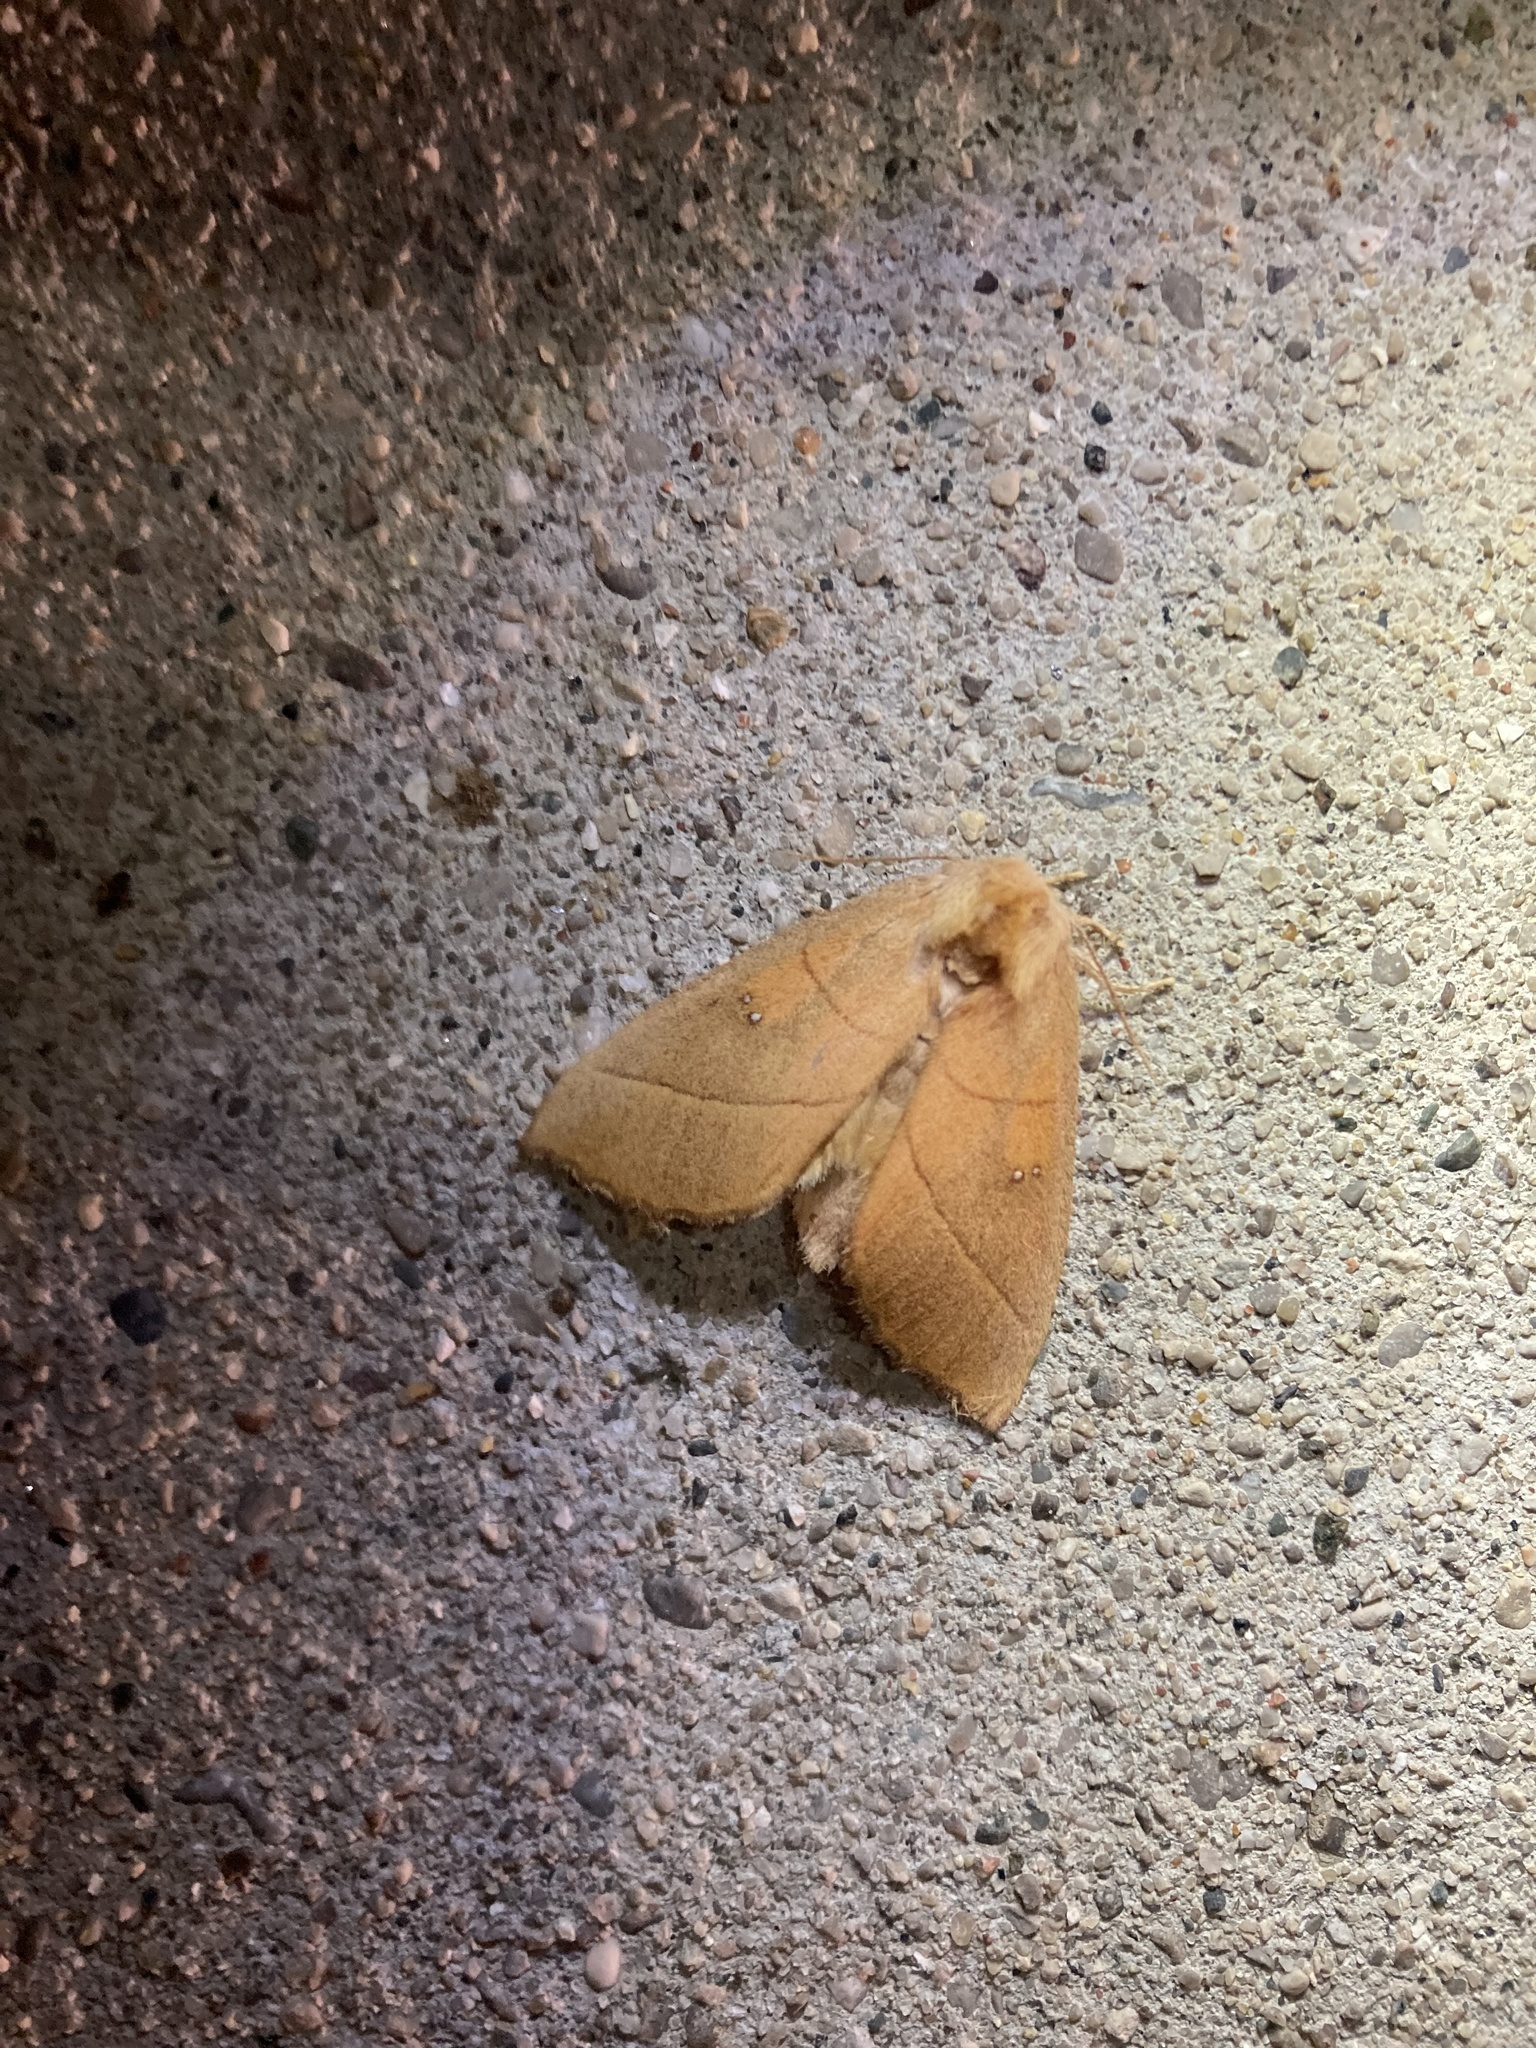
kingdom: Animalia
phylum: Arthropoda
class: Insecta
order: Lepidoptera
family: Notodontidae
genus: Nadata
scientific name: Nadata gibbosa
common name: White-dotted prominent
